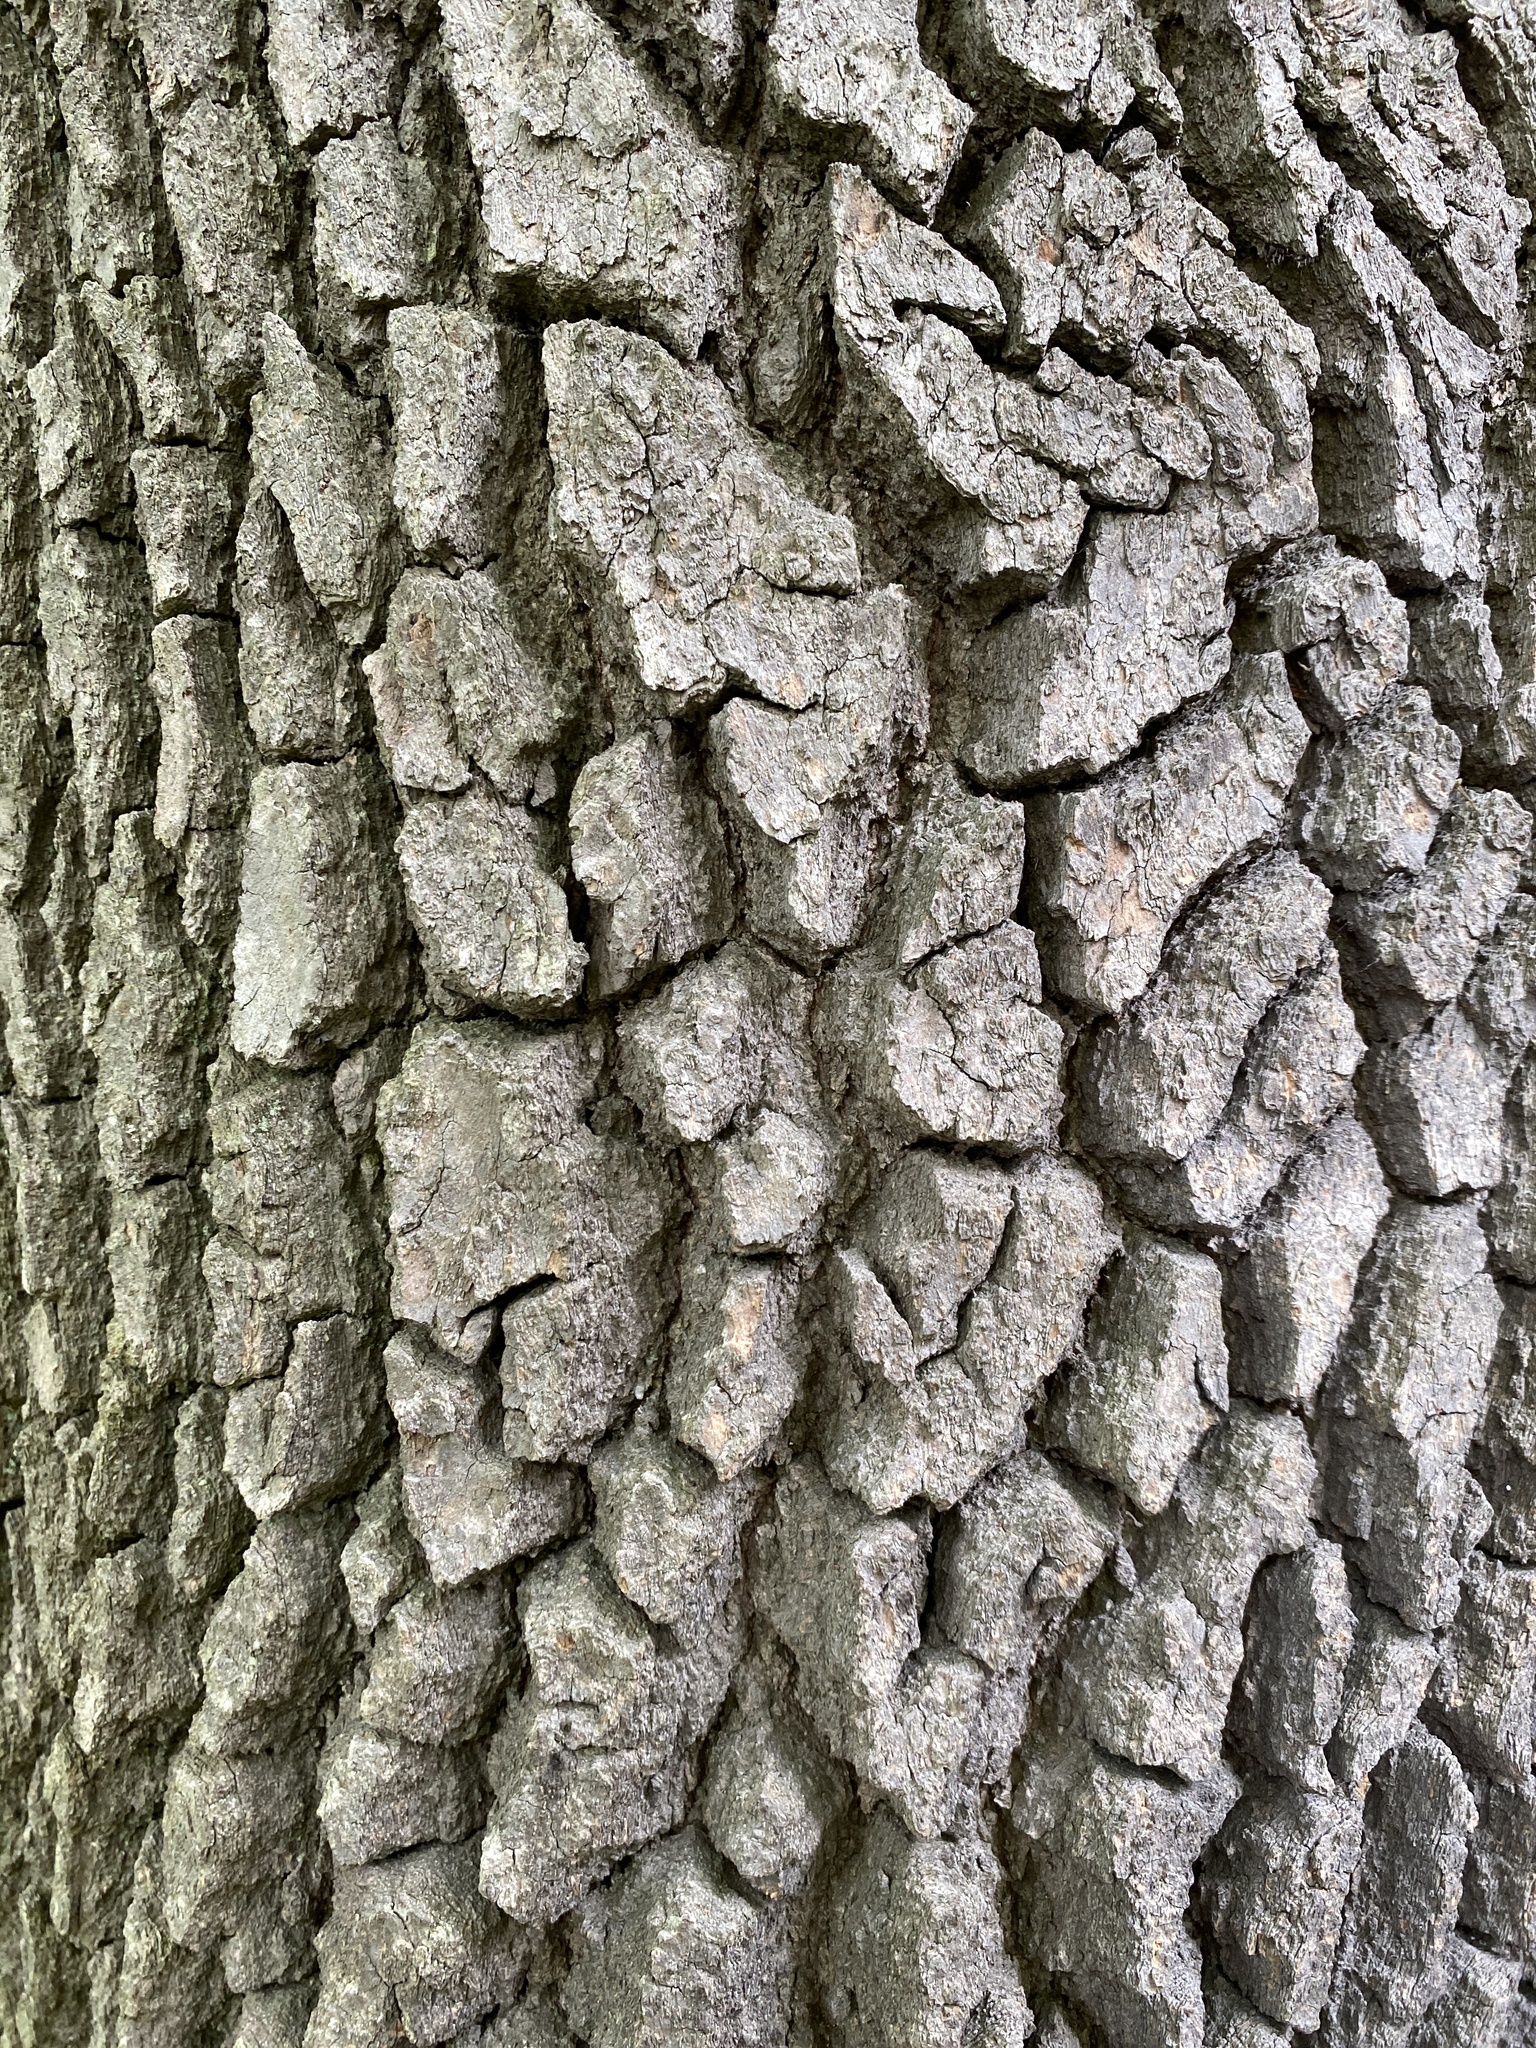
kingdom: Plantae
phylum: Tracheophyta
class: Magnoliopsida
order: Cornales
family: Nyssaceae
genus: Nyssa
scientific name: Nyssa sylvatica
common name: Black tupelo
